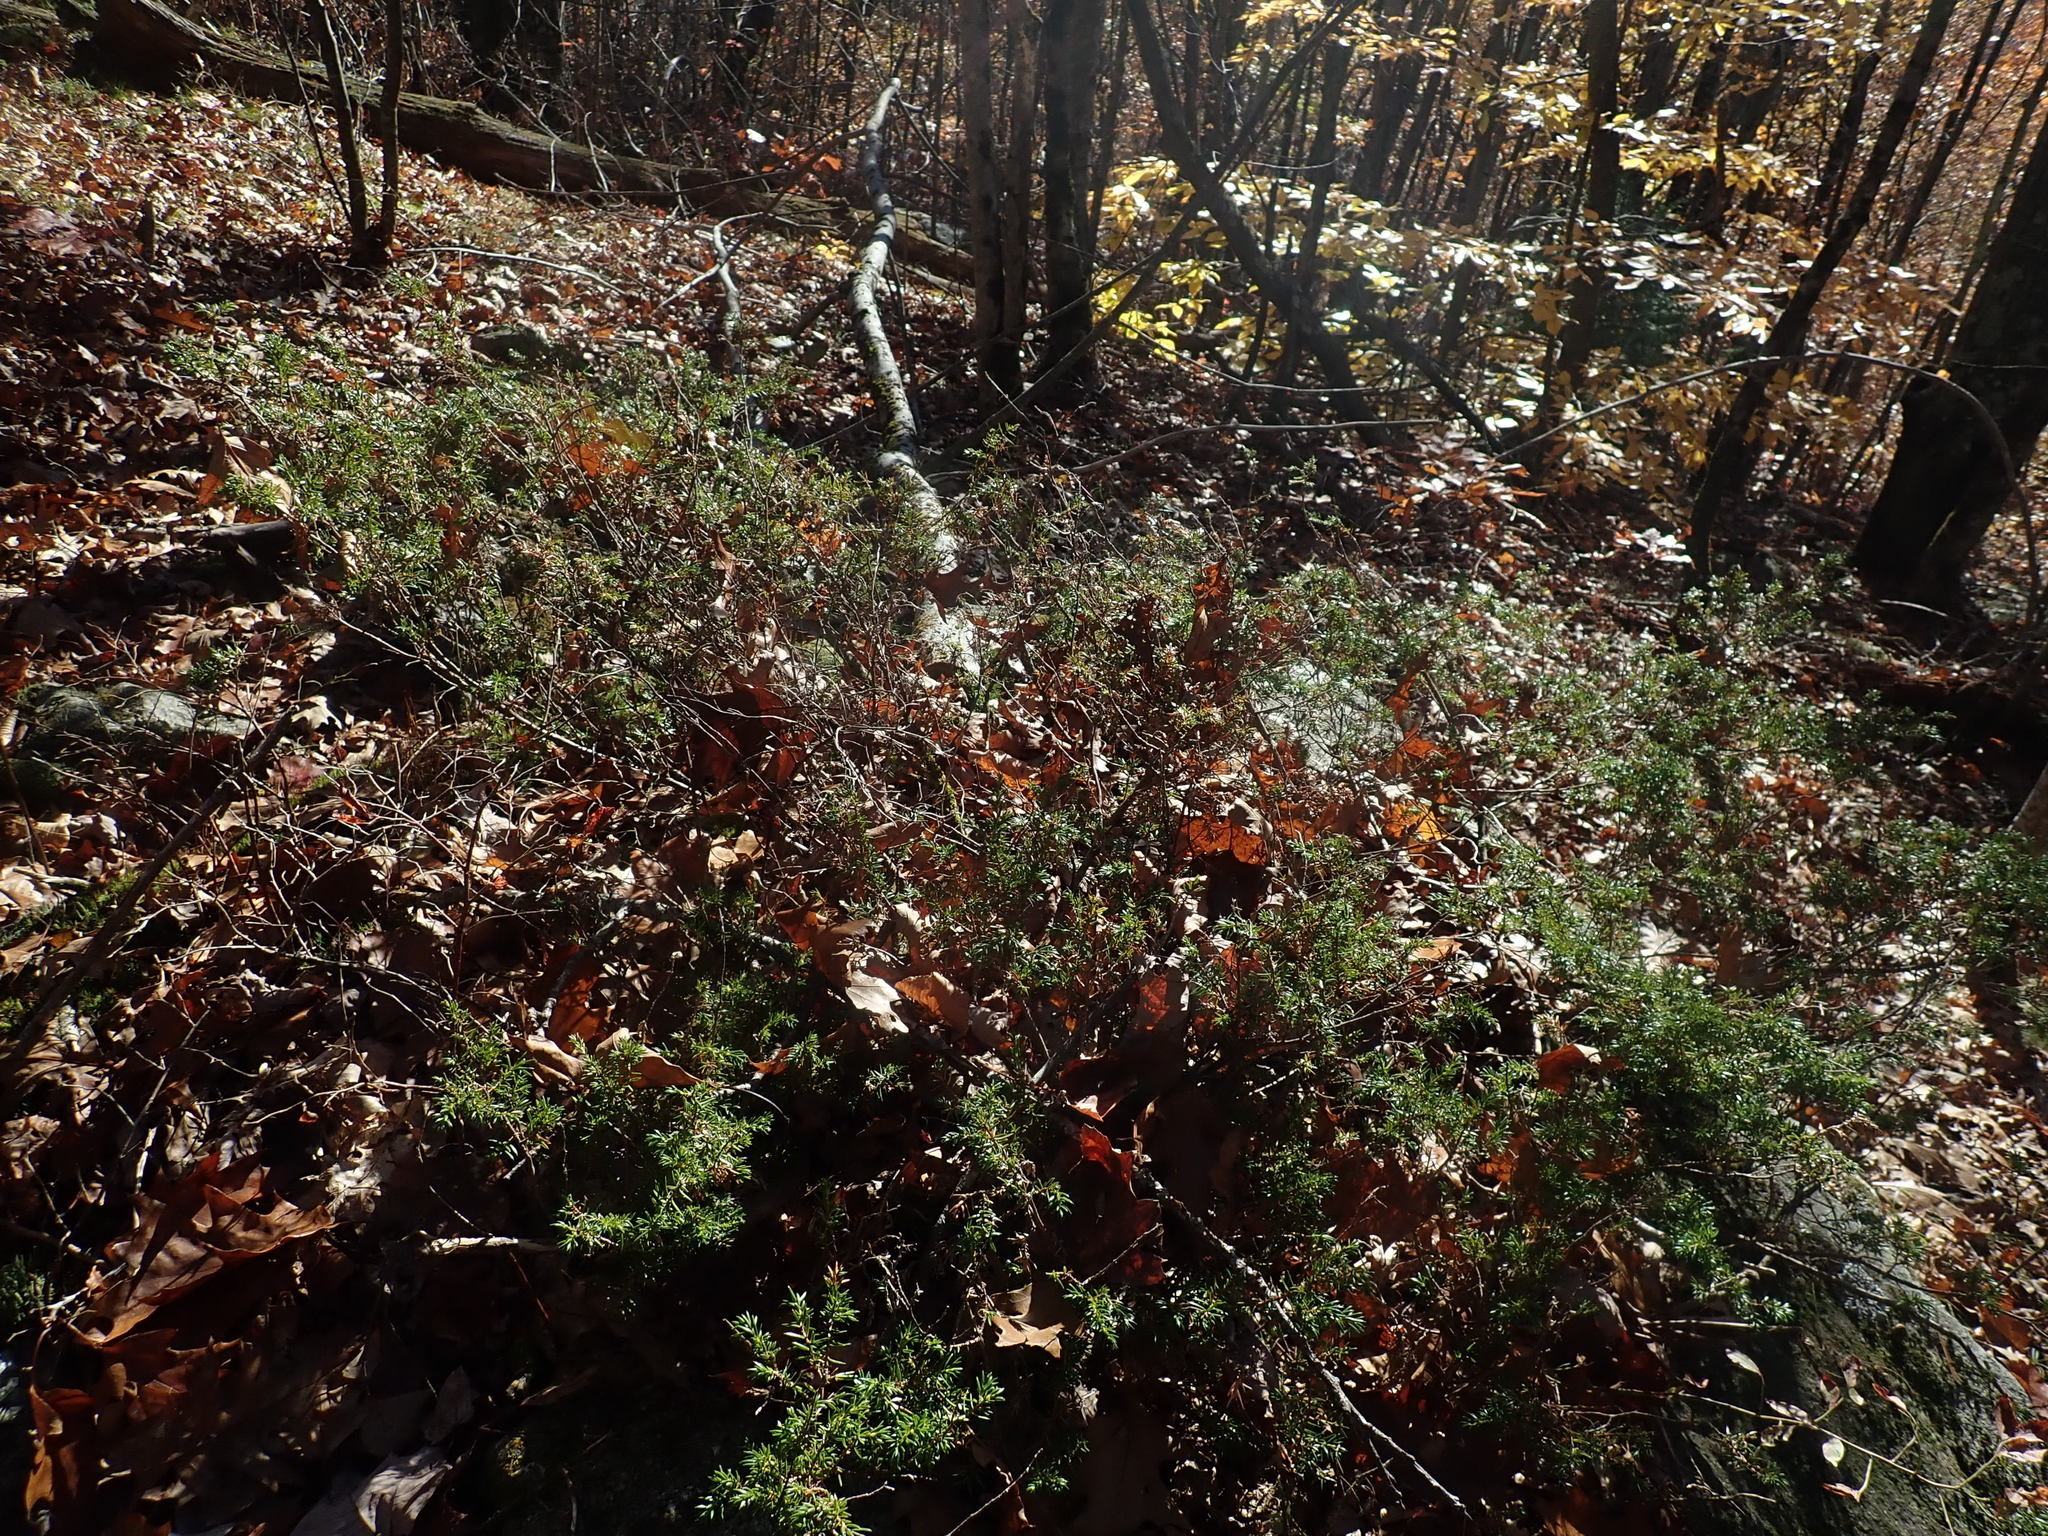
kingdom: Plantae
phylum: Tracheophyta
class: Pinopsida
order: Pinales
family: Cupressaceae
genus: Juniperus
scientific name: Juniperus communis
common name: Common juniper
